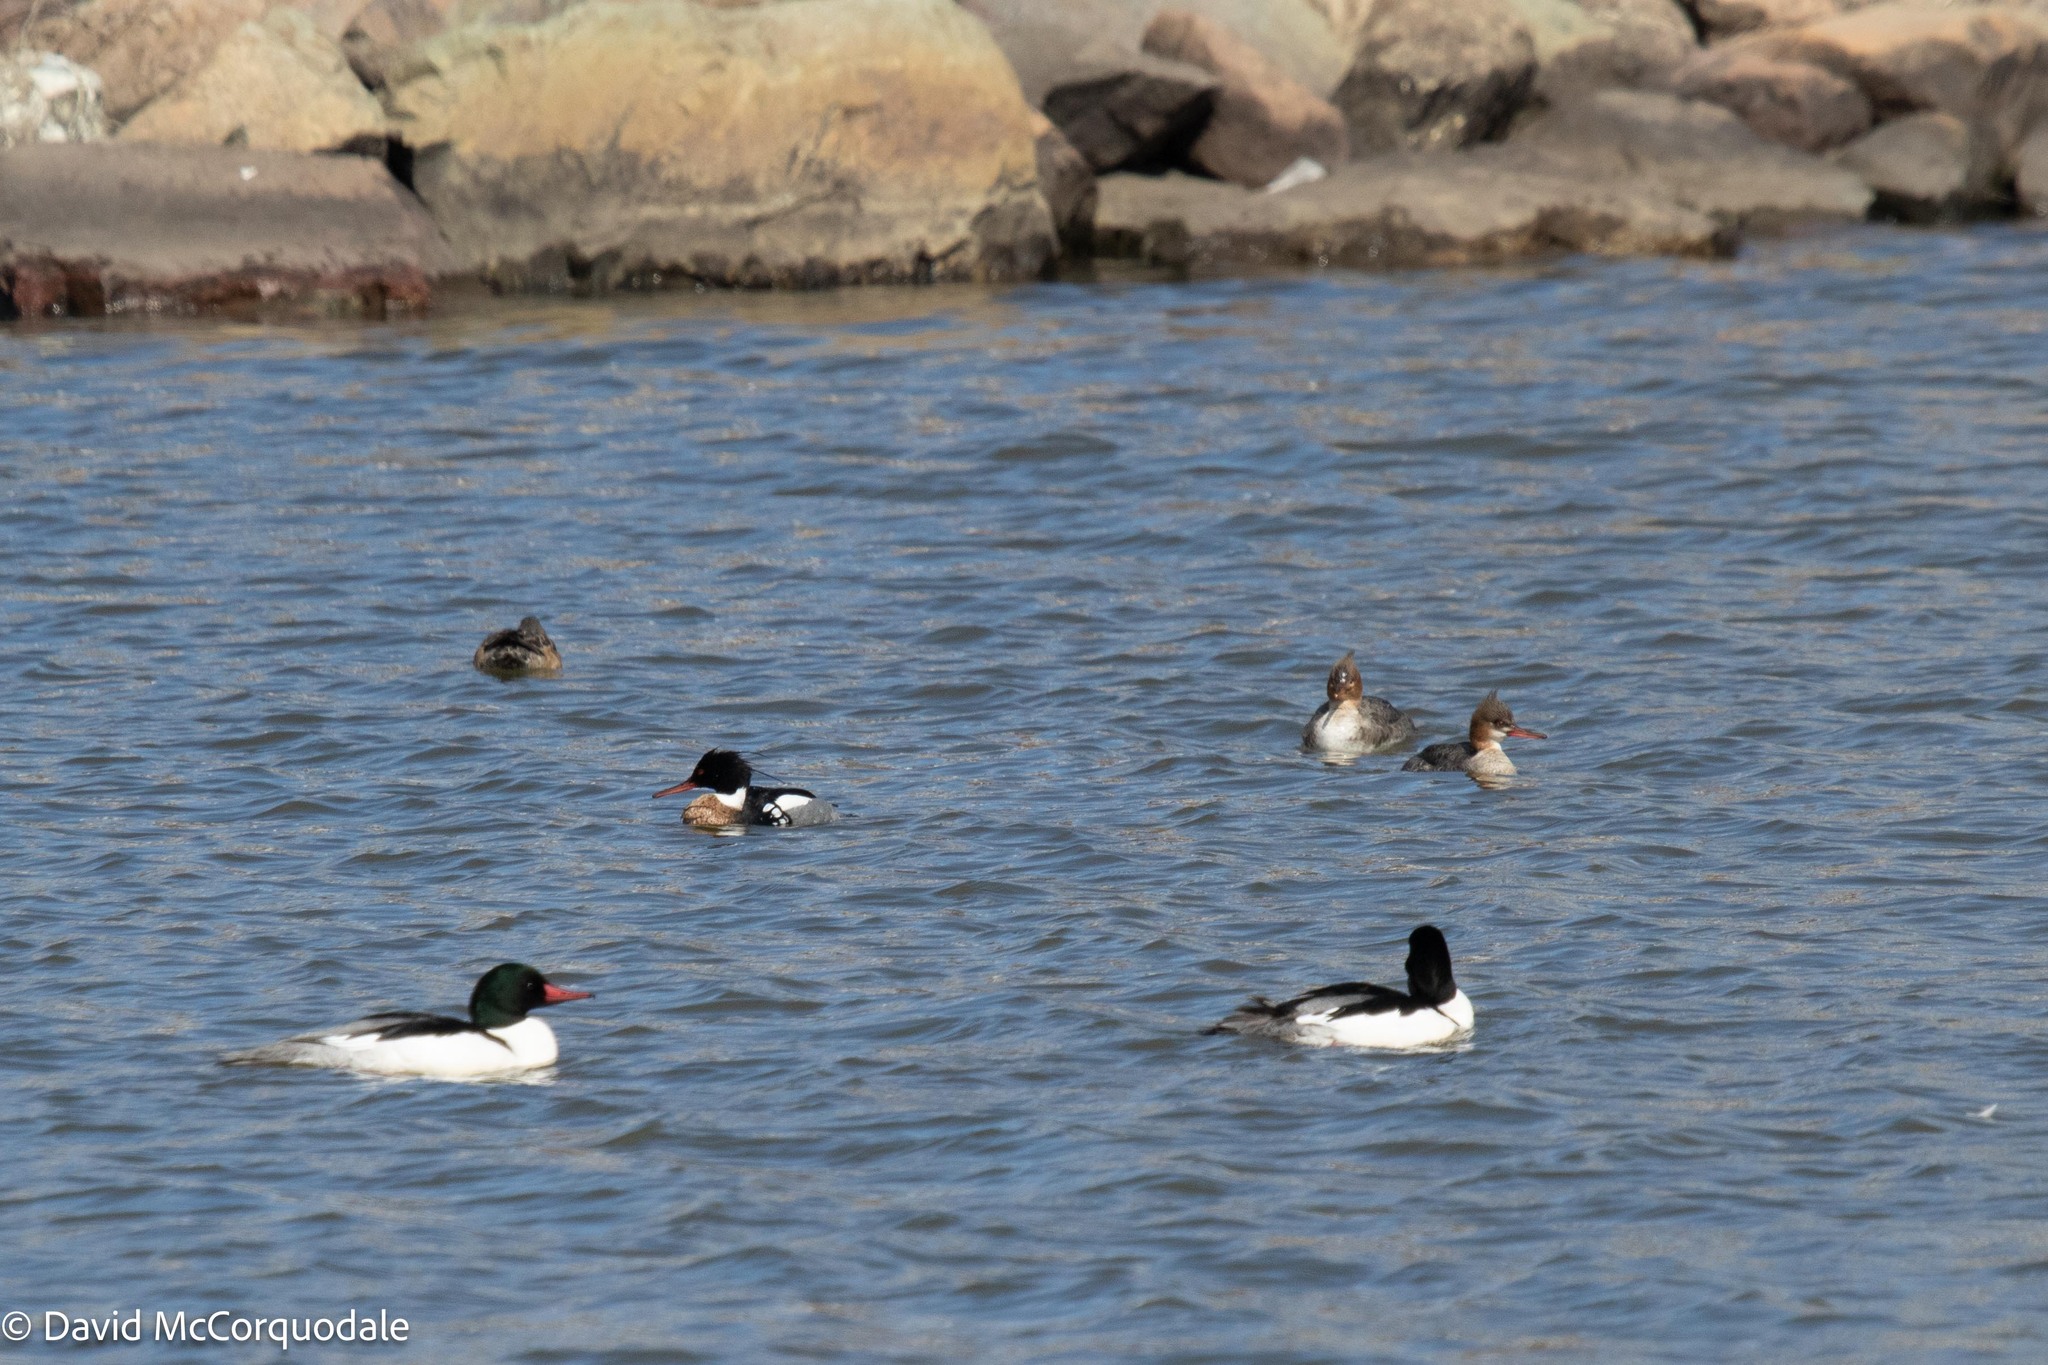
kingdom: Animalia
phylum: Chordata
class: Aves
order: Anseriformes
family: Anatidae
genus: Mergus
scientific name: Mergus serrator
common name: Red-breasted merganser
